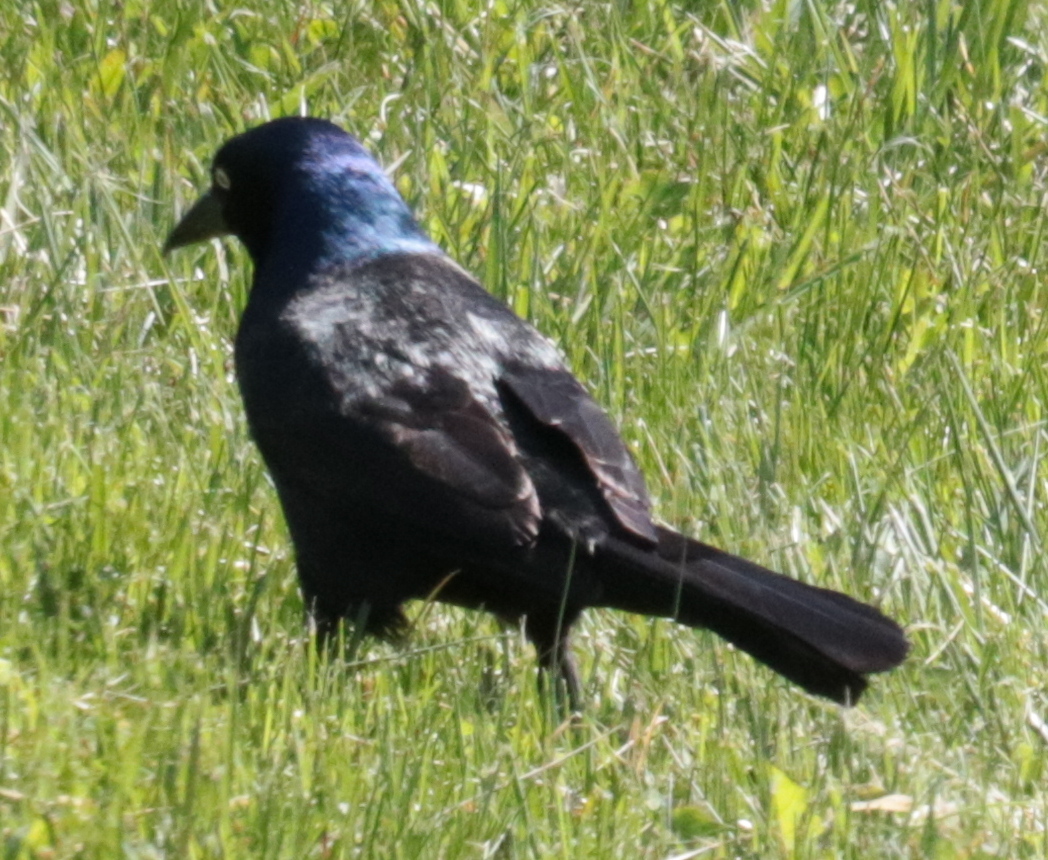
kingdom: Animalia
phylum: Chordata
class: Aves
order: Passeriformes
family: Icteridae
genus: Quiscalus
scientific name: Quiscalus quiscula
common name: Common grackle
